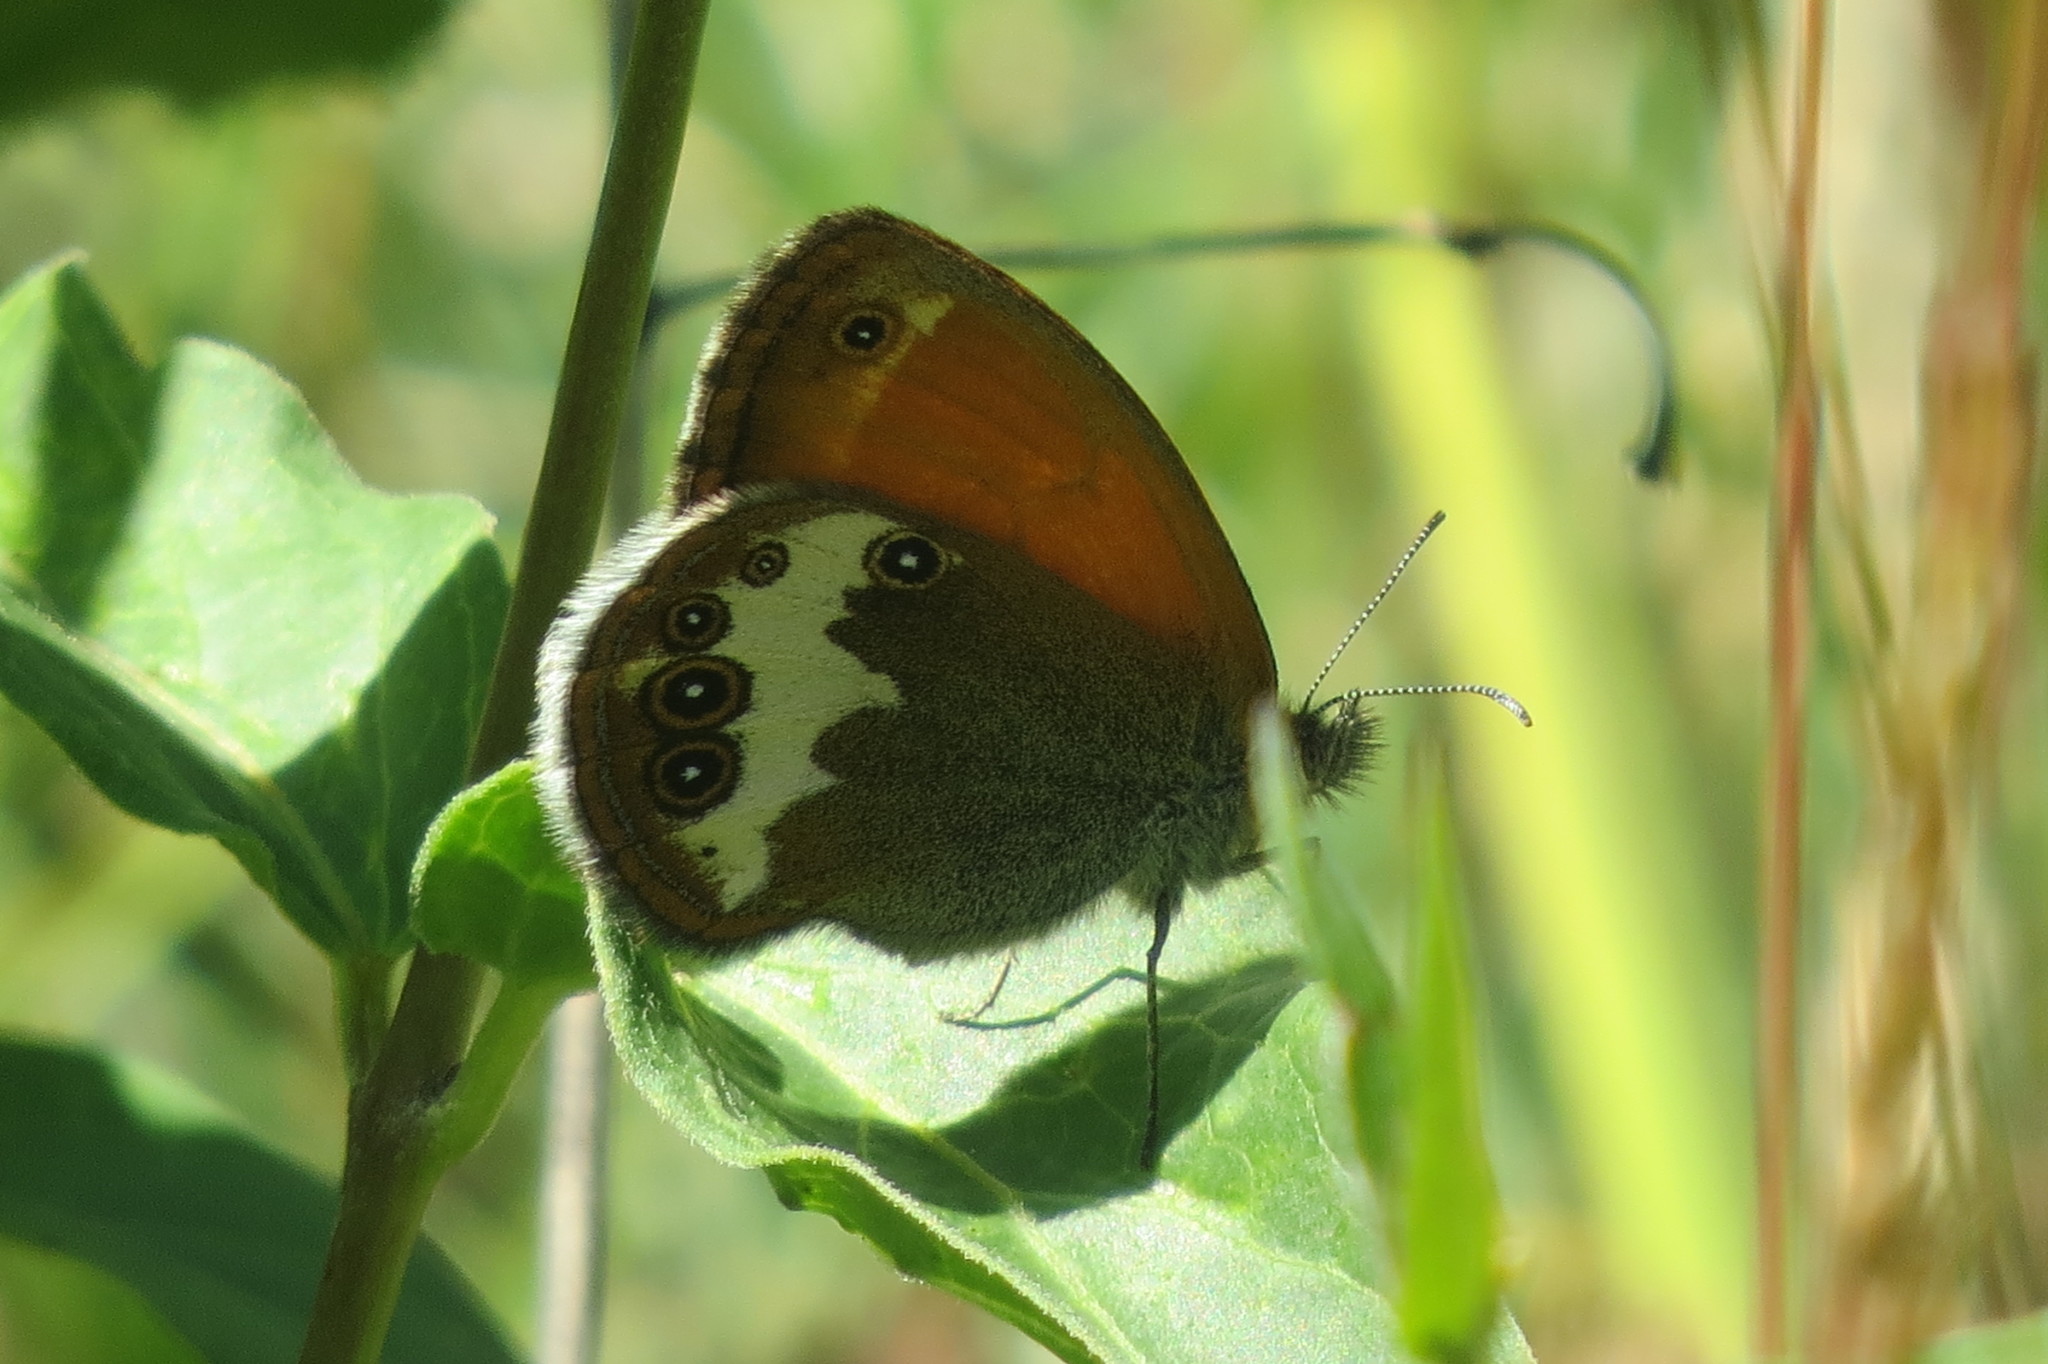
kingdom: Animalia
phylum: Arthropoda
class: Insecta
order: Lepidoptera
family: Nymphalidae
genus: Coenonympha
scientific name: Coenonympha arcania
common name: Pearly heath
